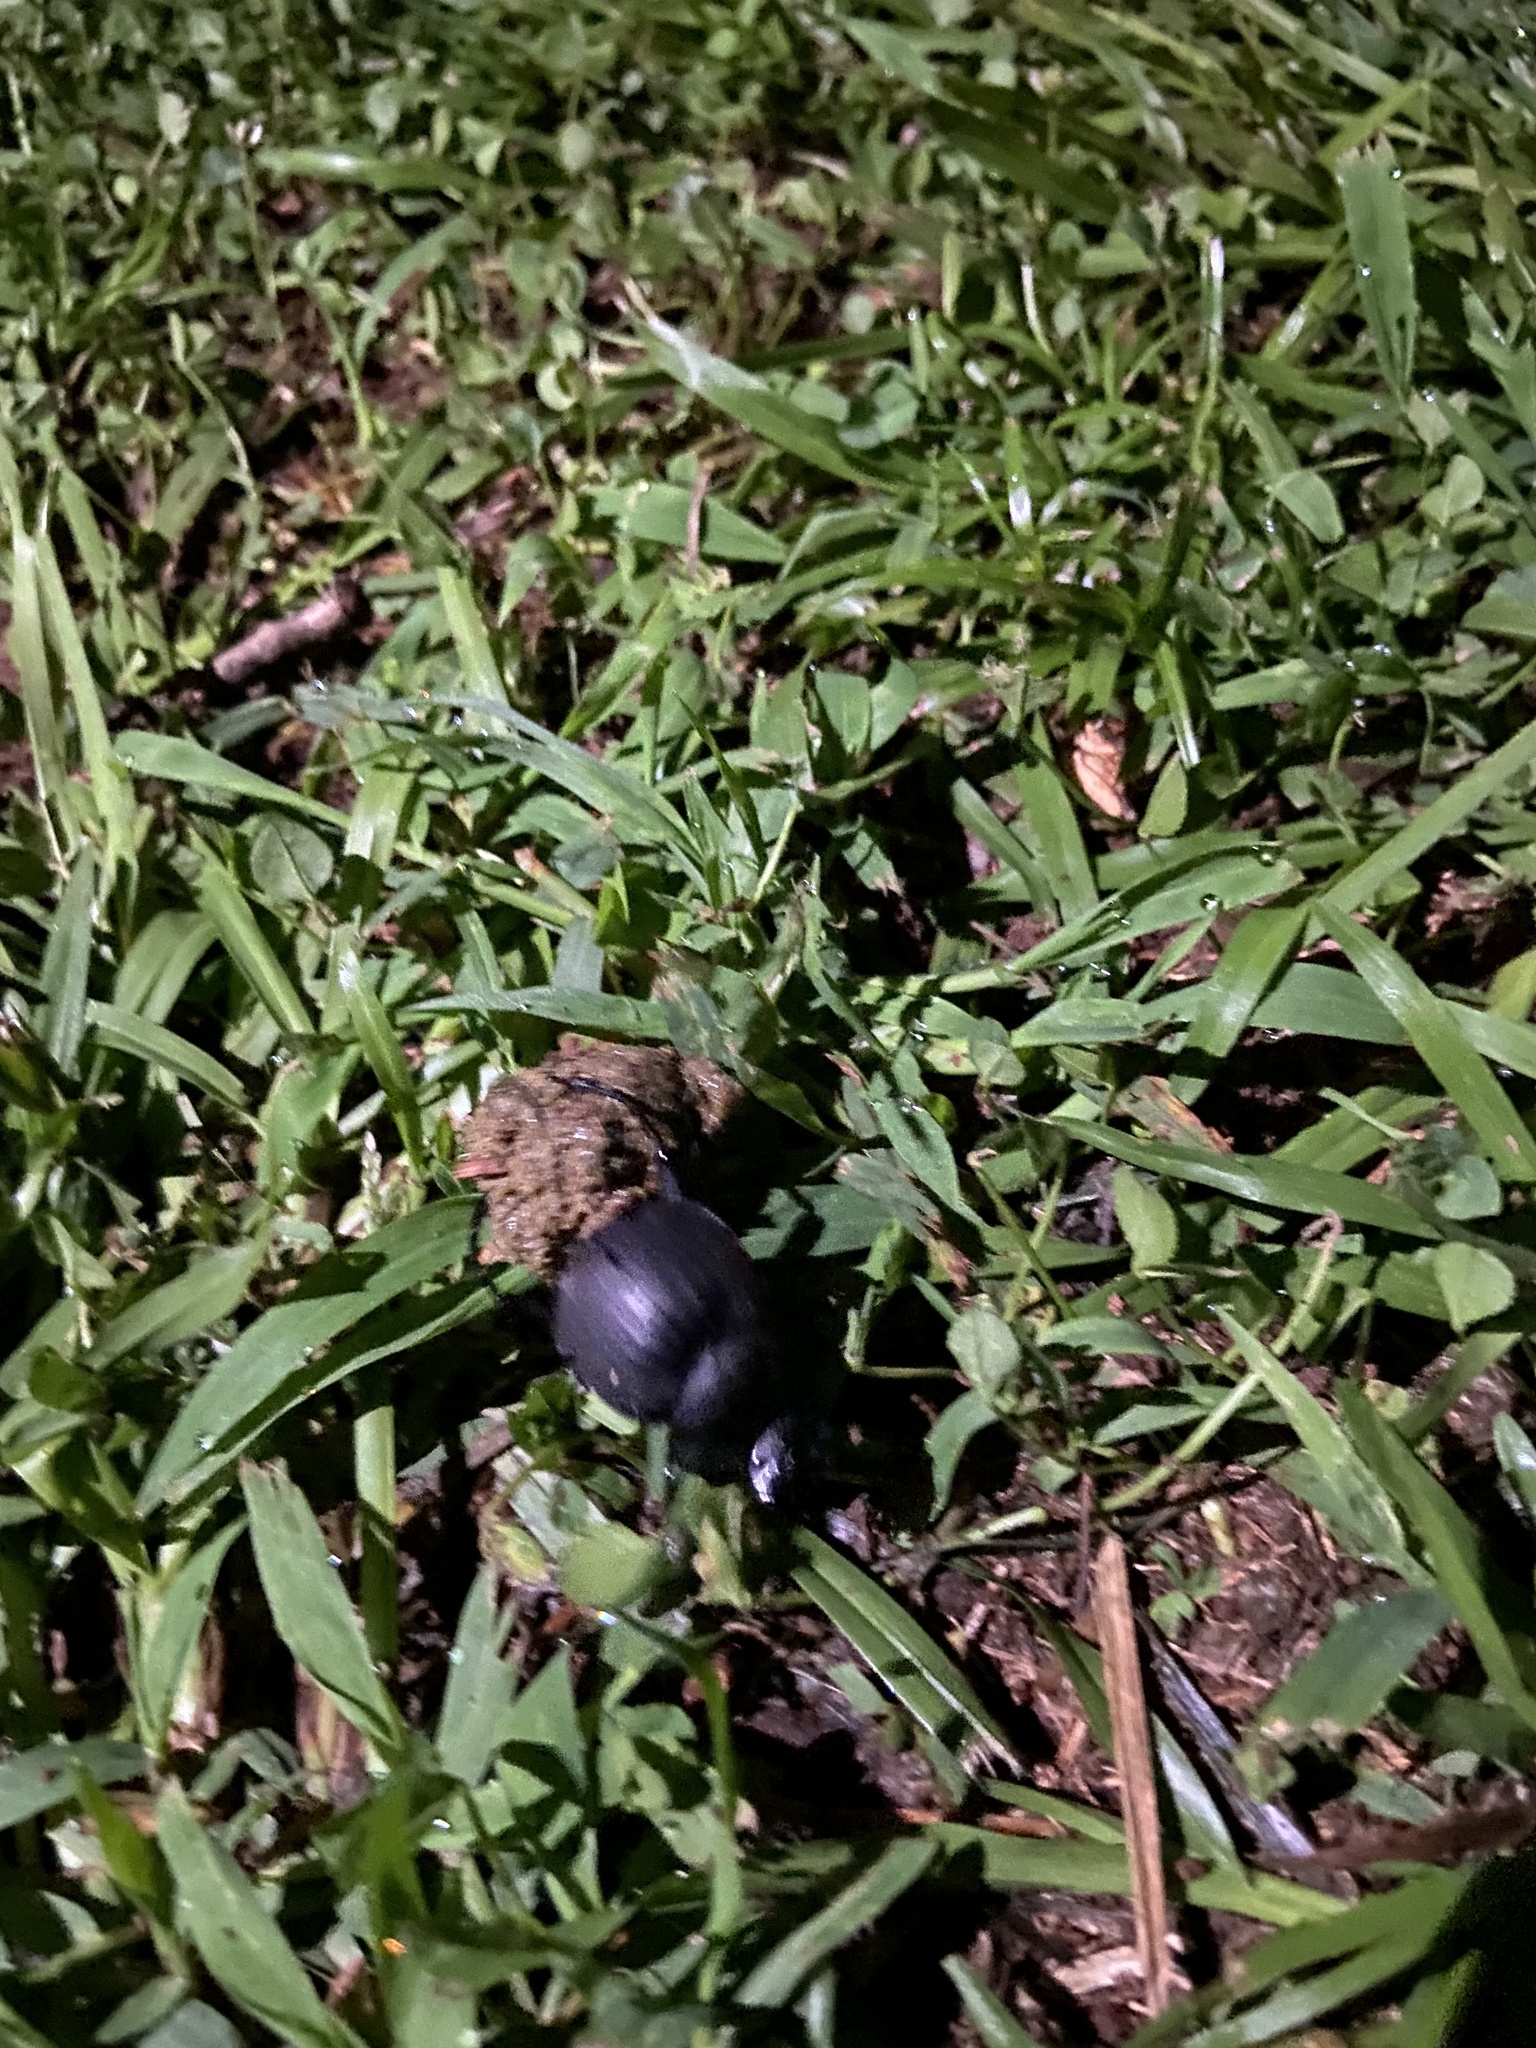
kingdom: Animalia
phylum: Arthropoda
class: Insecta
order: Coleoptera
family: Scarabaeidae
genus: Deltochilum
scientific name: Deltochilum gibbosum
